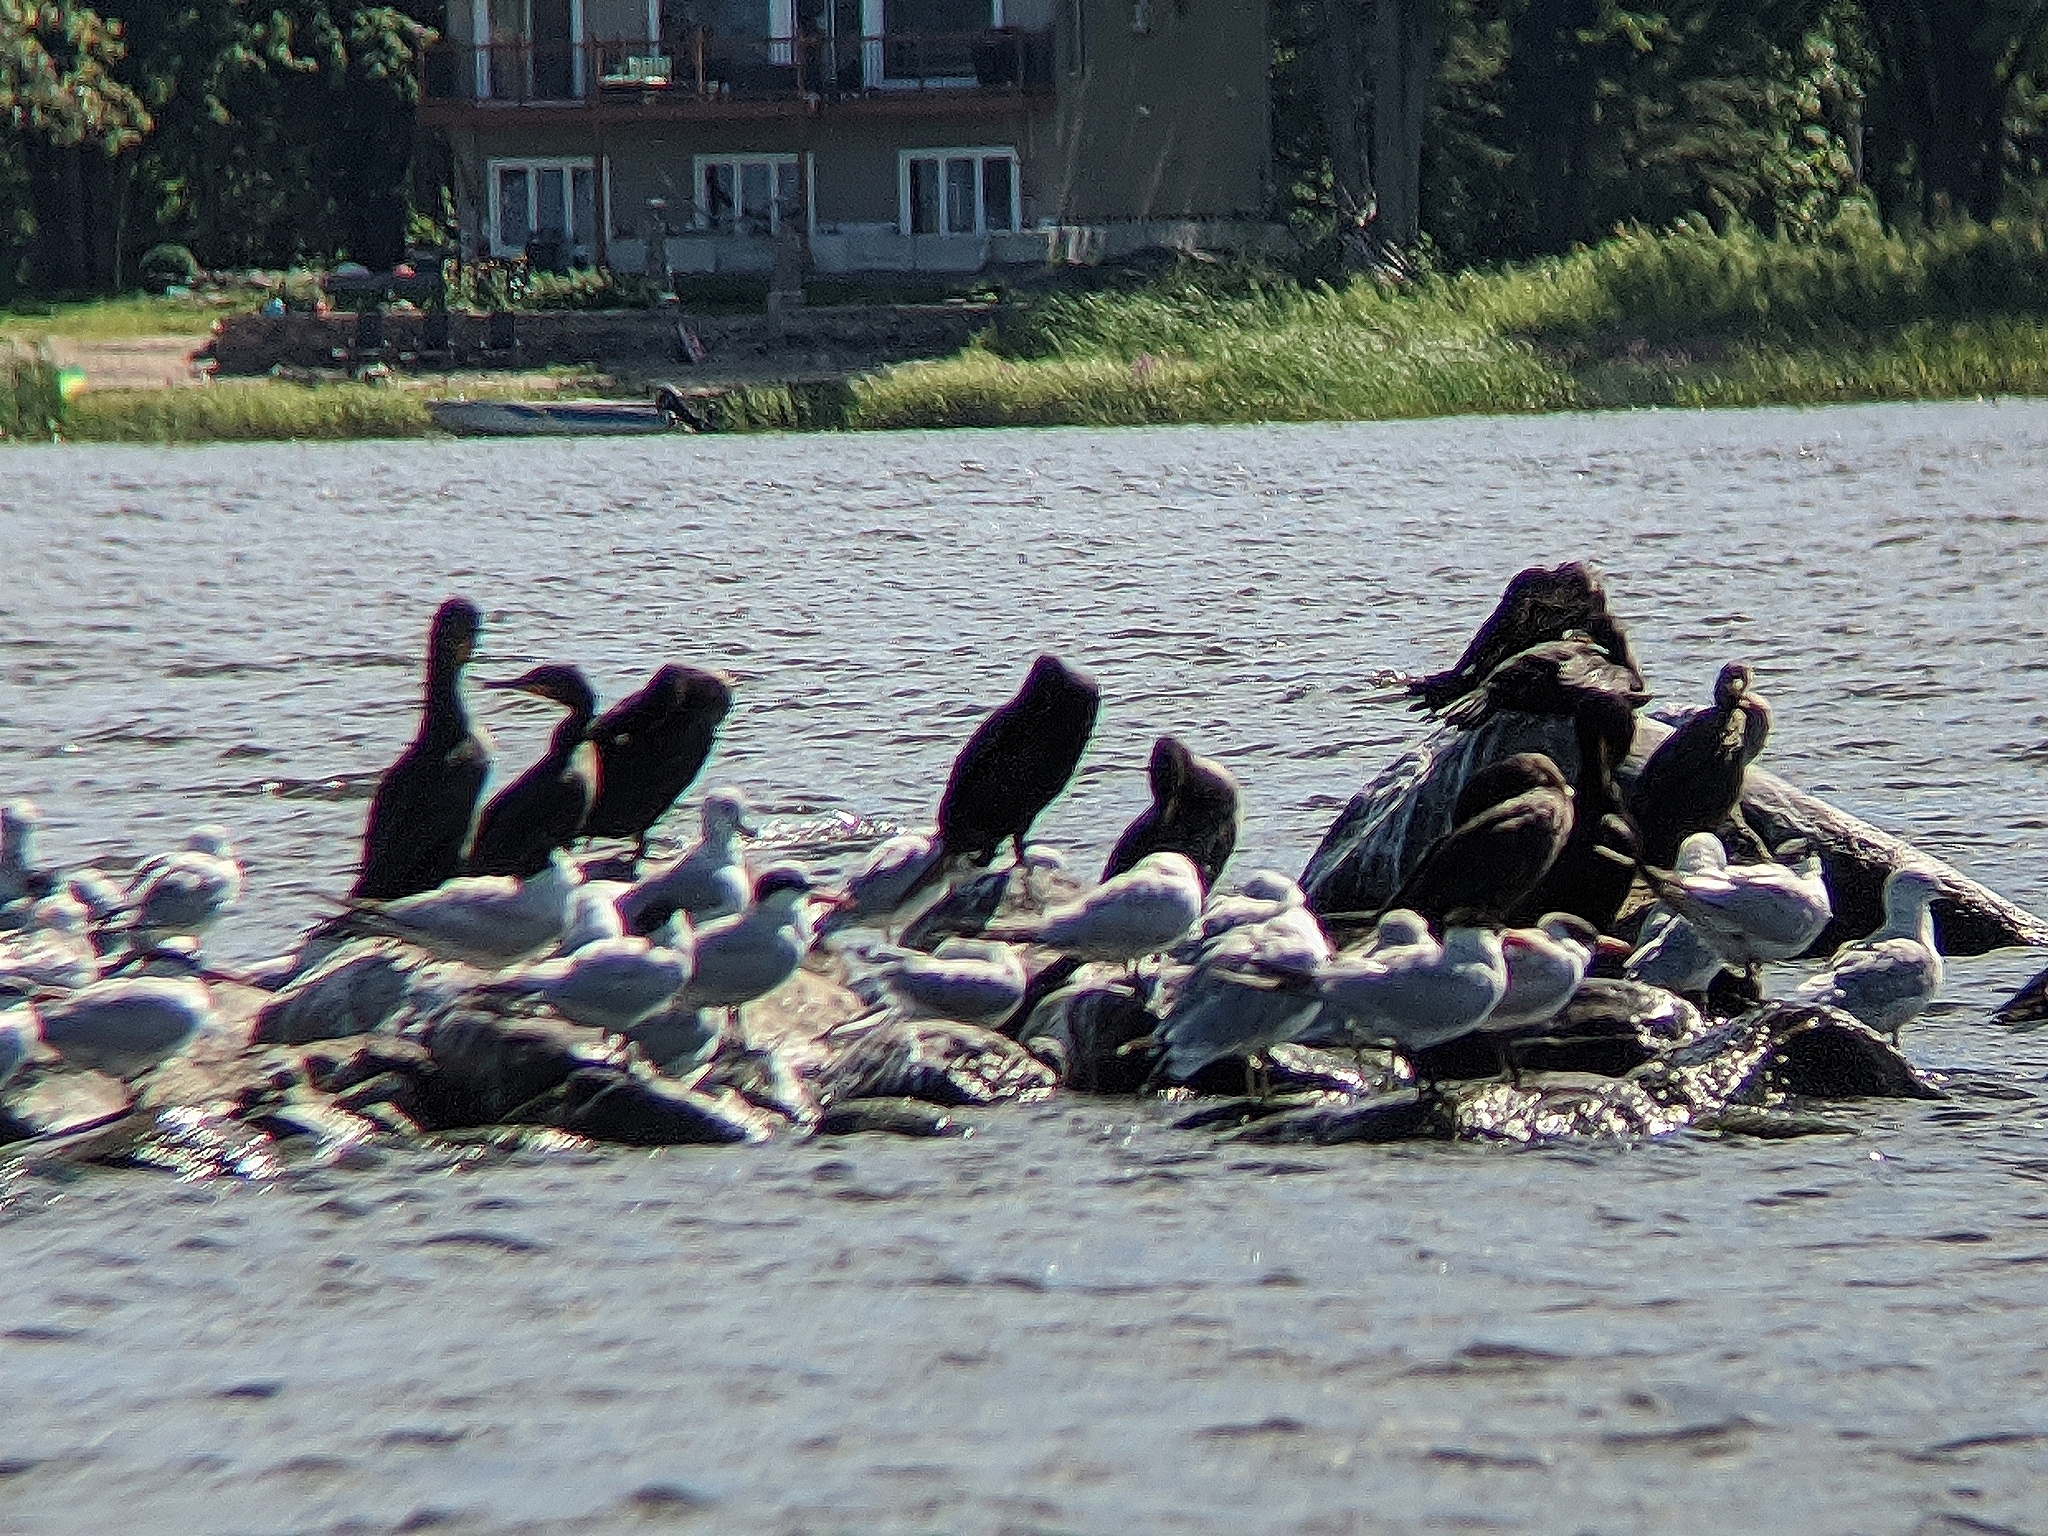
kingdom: Animalia
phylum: Chordata
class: Aves
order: Suliformes
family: Phalacrocoracidae
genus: Phalacrocorax
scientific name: Phalacrocorax auritus
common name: Double-crested cormorant
